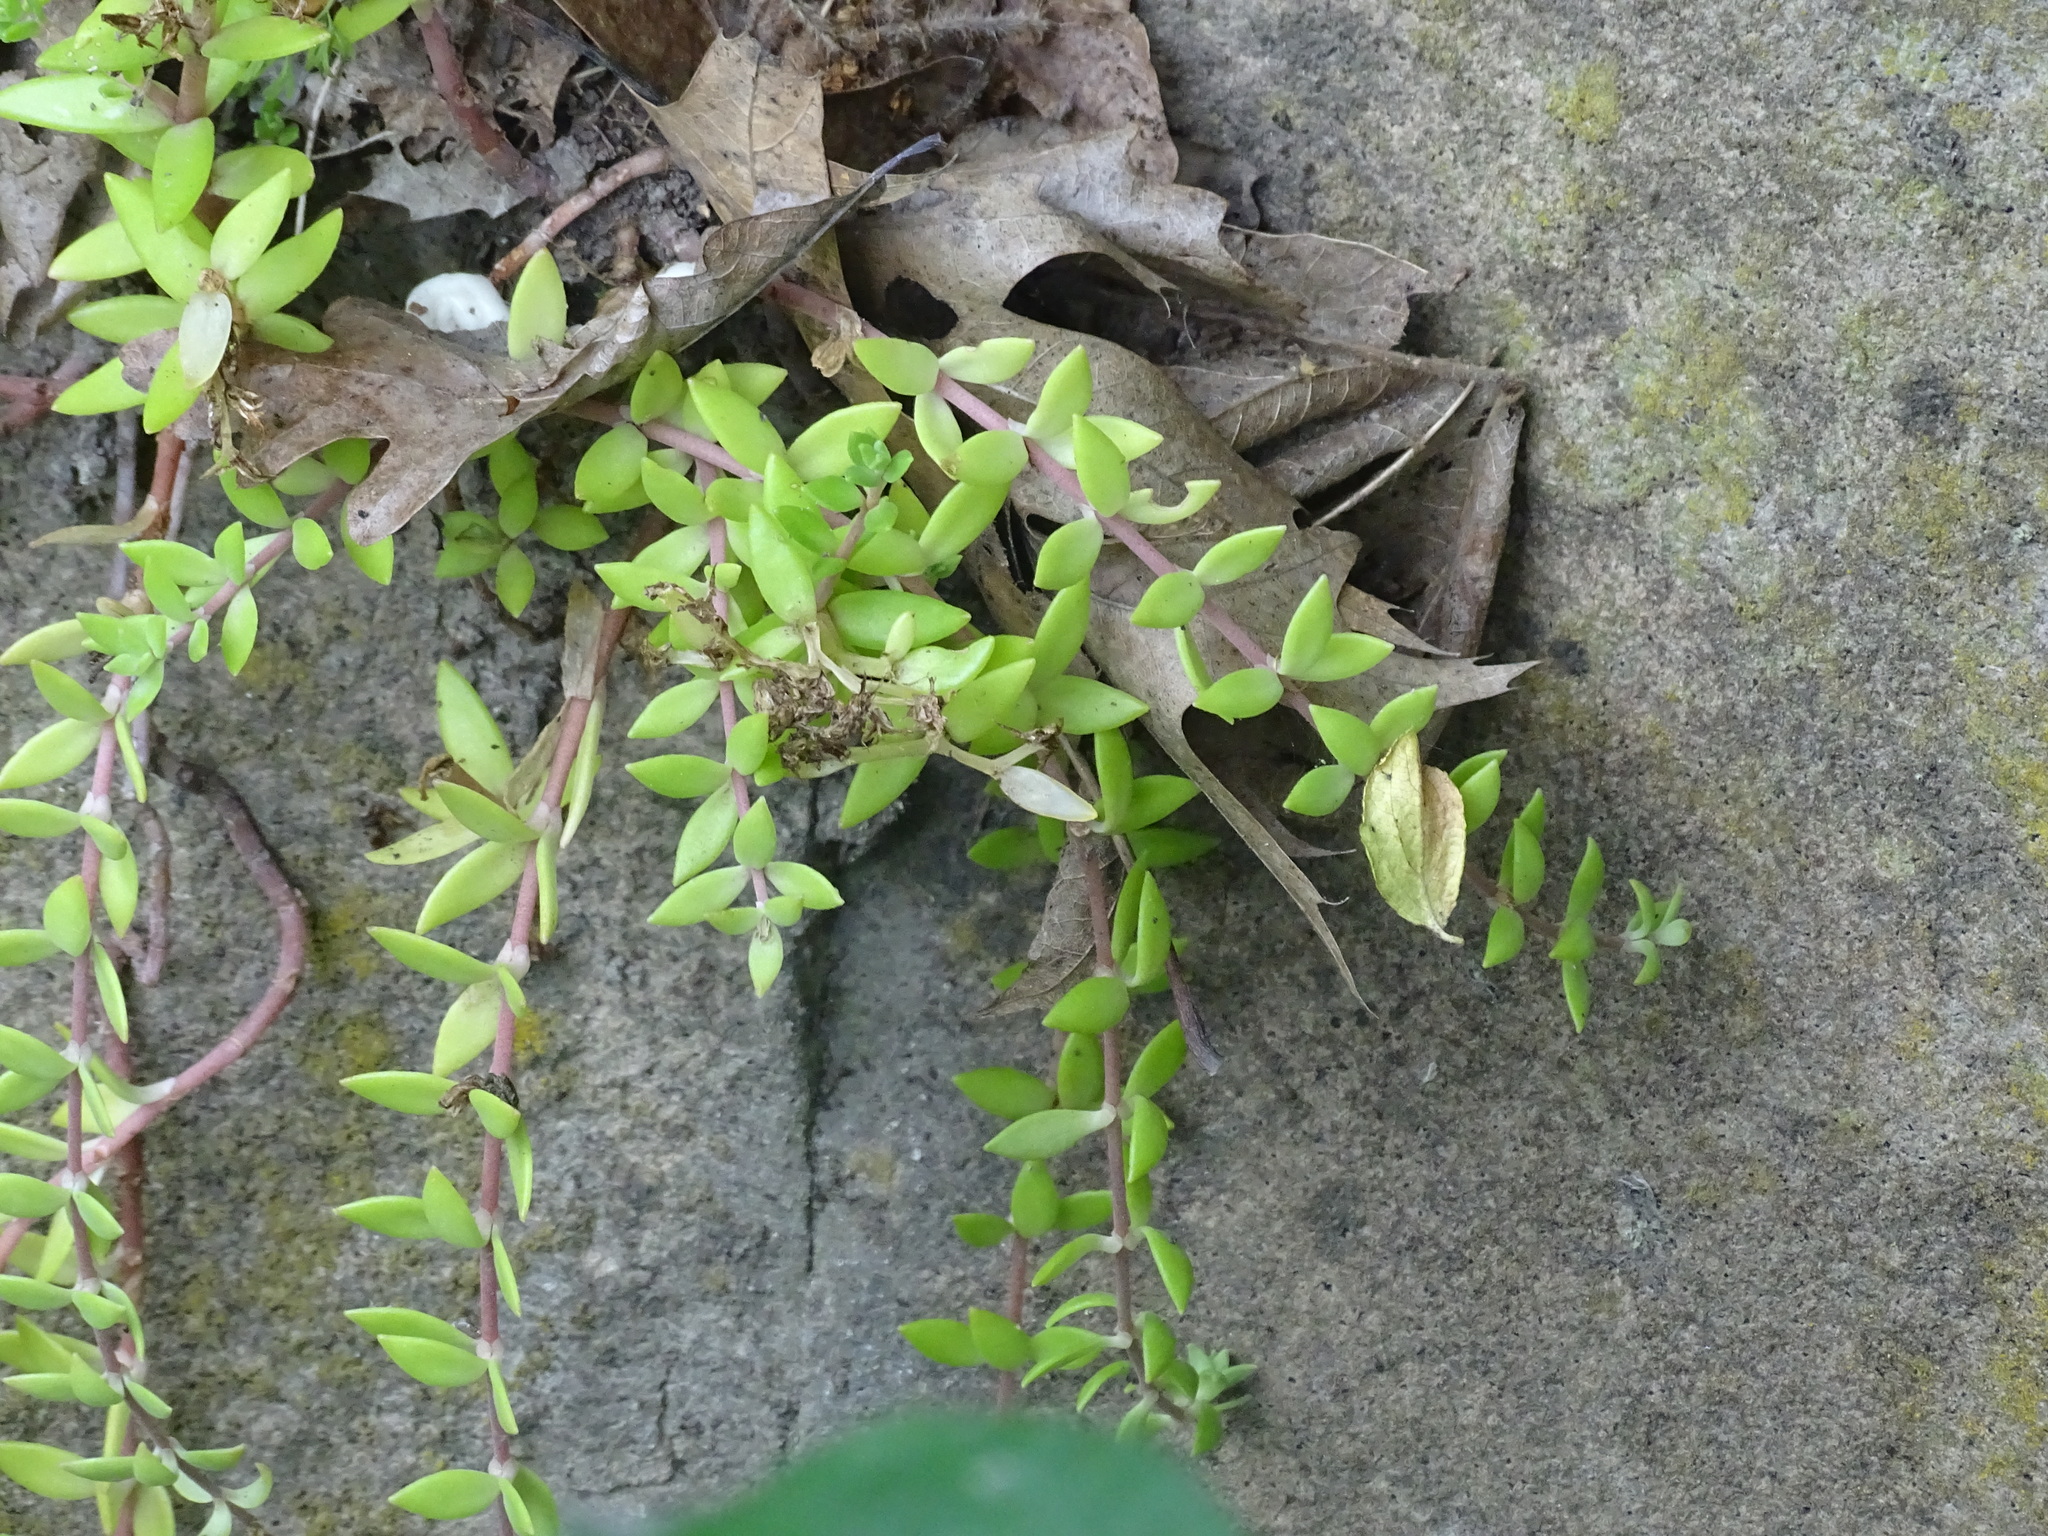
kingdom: Plantae
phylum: Tracheophyta
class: Magnoliopsida
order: Saxifragales
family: Crassulaceae
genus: Sedum
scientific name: Sedum sarmentosum
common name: Stringy stonecrop
